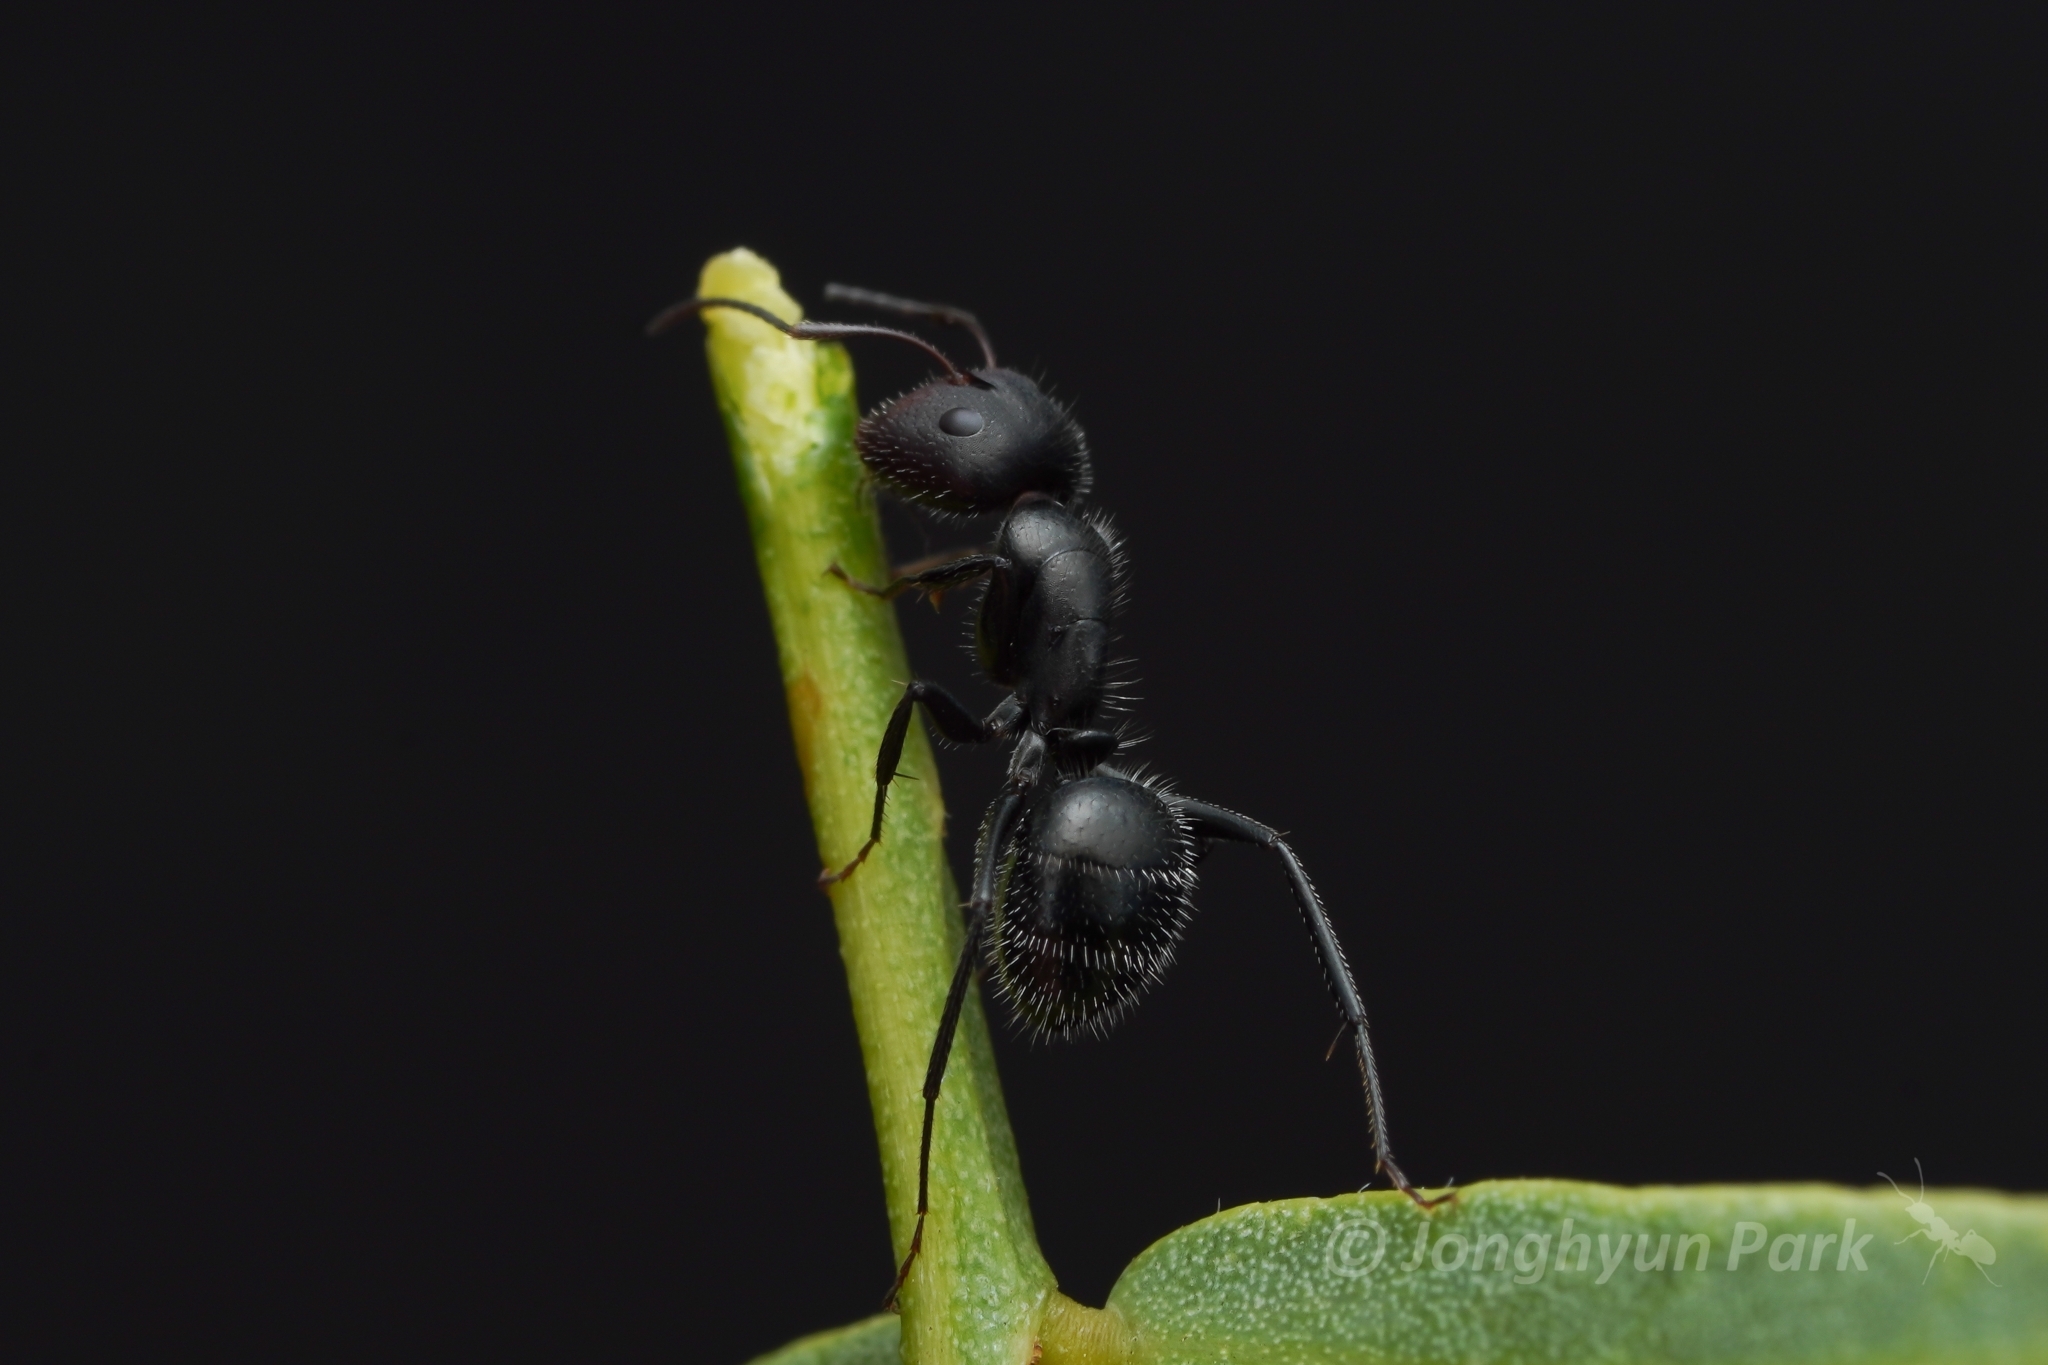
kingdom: Animalia
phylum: Arthropoda
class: Insecta
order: Hymenoptera
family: Formicidae
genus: Camponotus
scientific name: Camponotus ulcerosus
